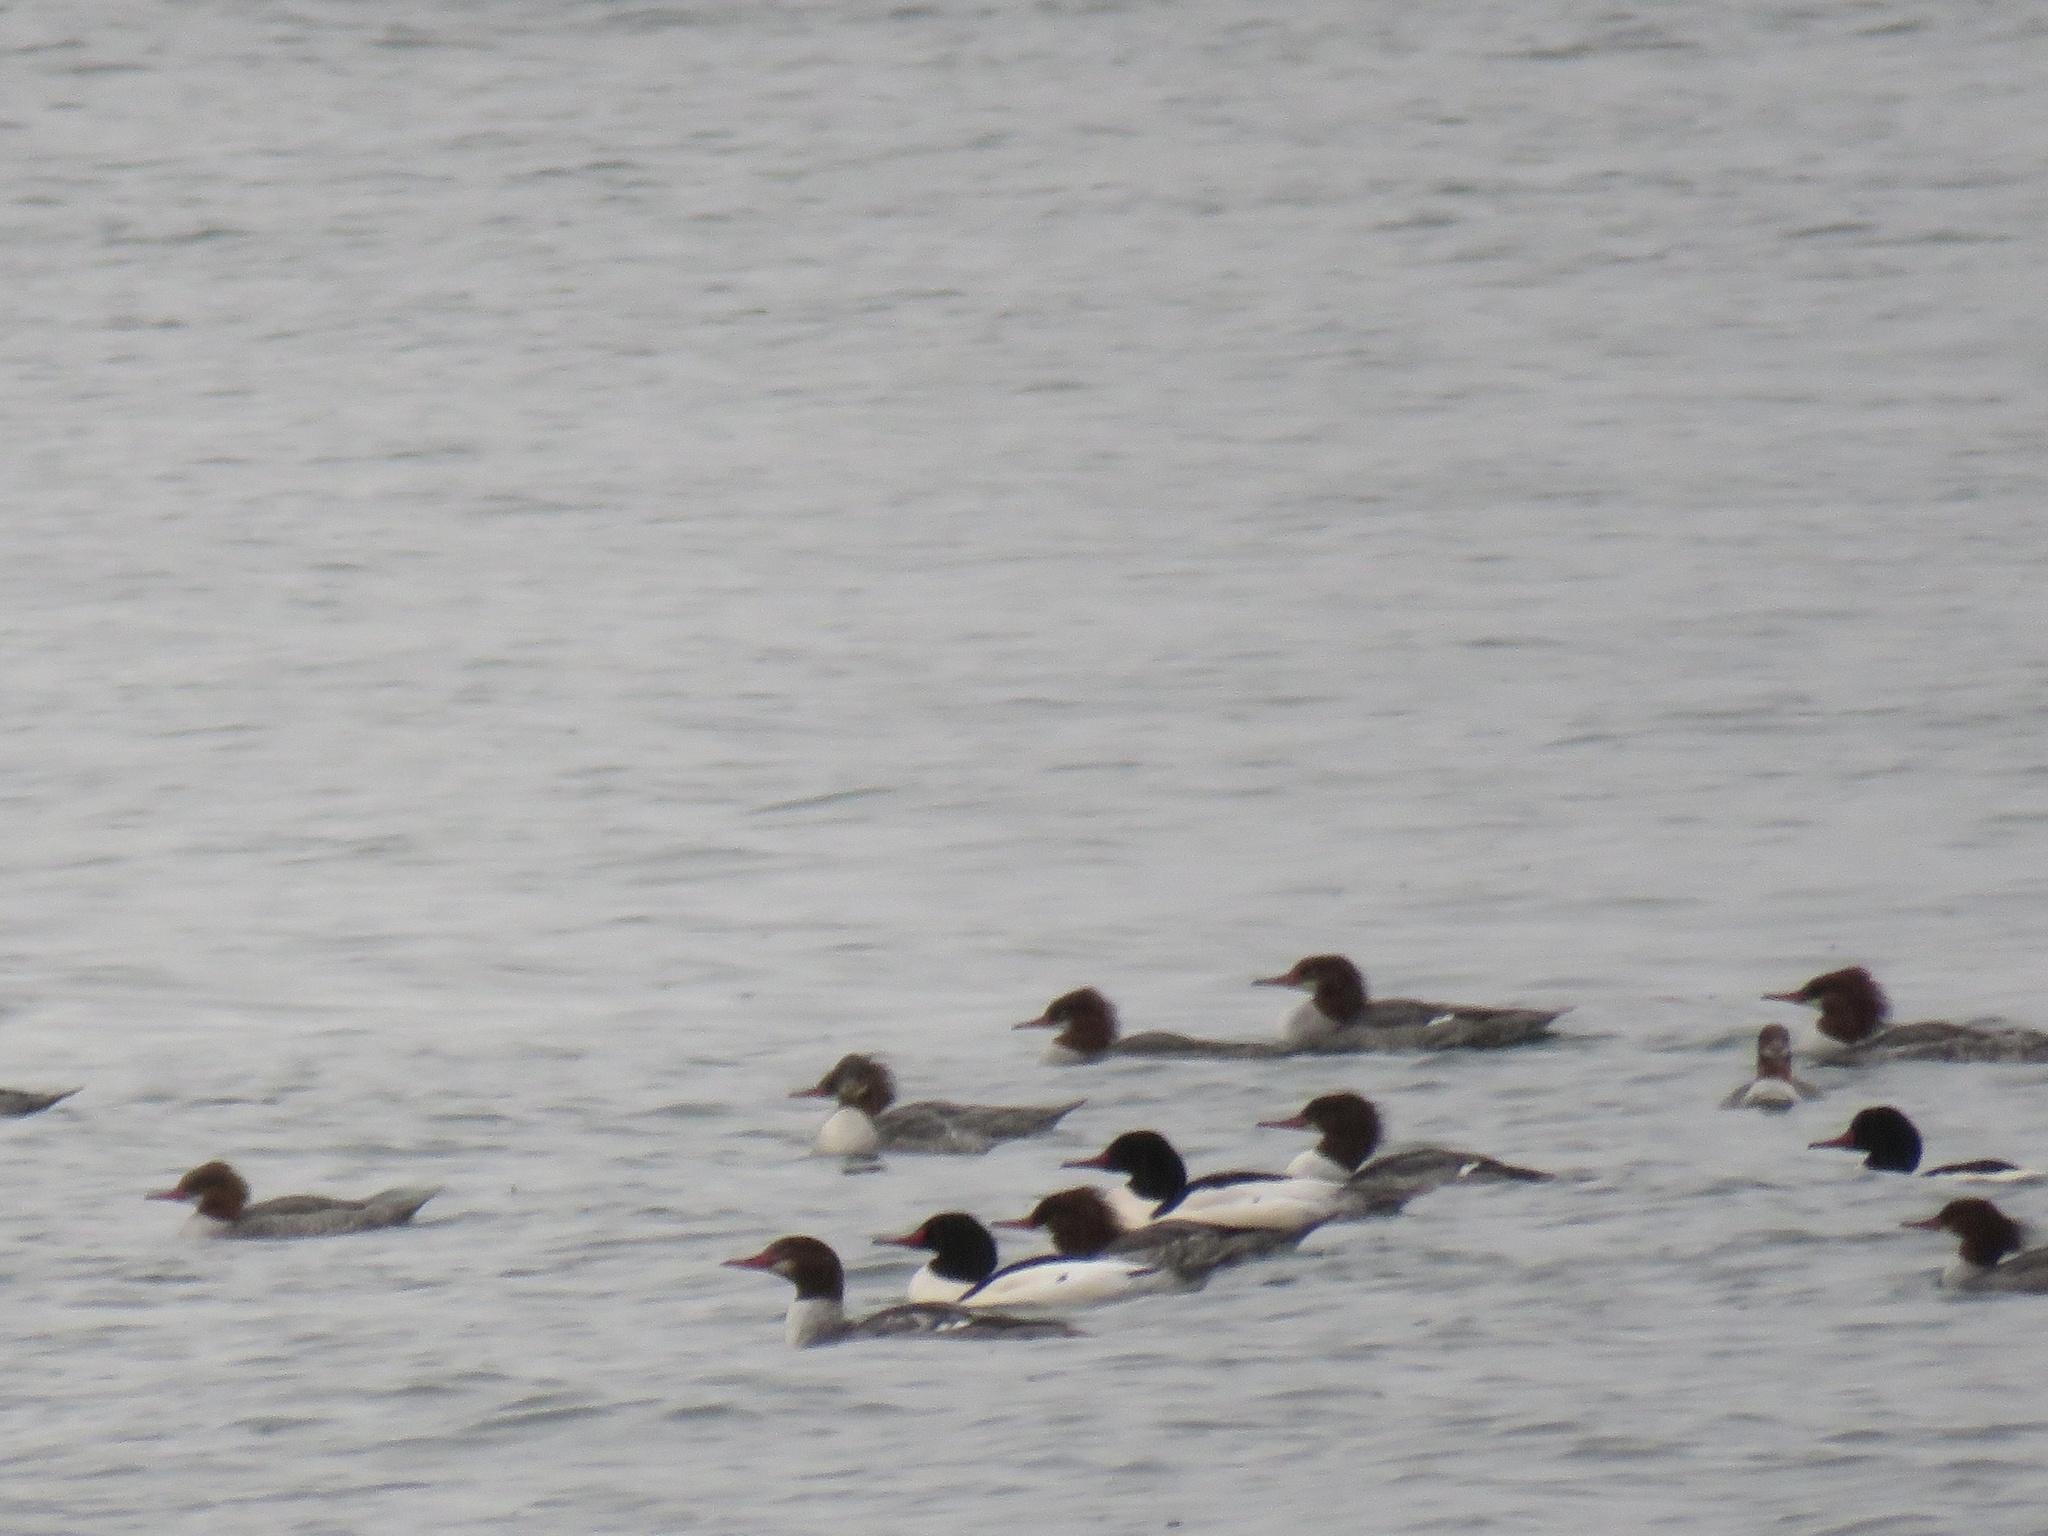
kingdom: Animalia
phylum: Chordata
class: Aves
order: Anseriformes
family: Anatidae
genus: Mergus
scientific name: Mergus merganser
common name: Common merganser
